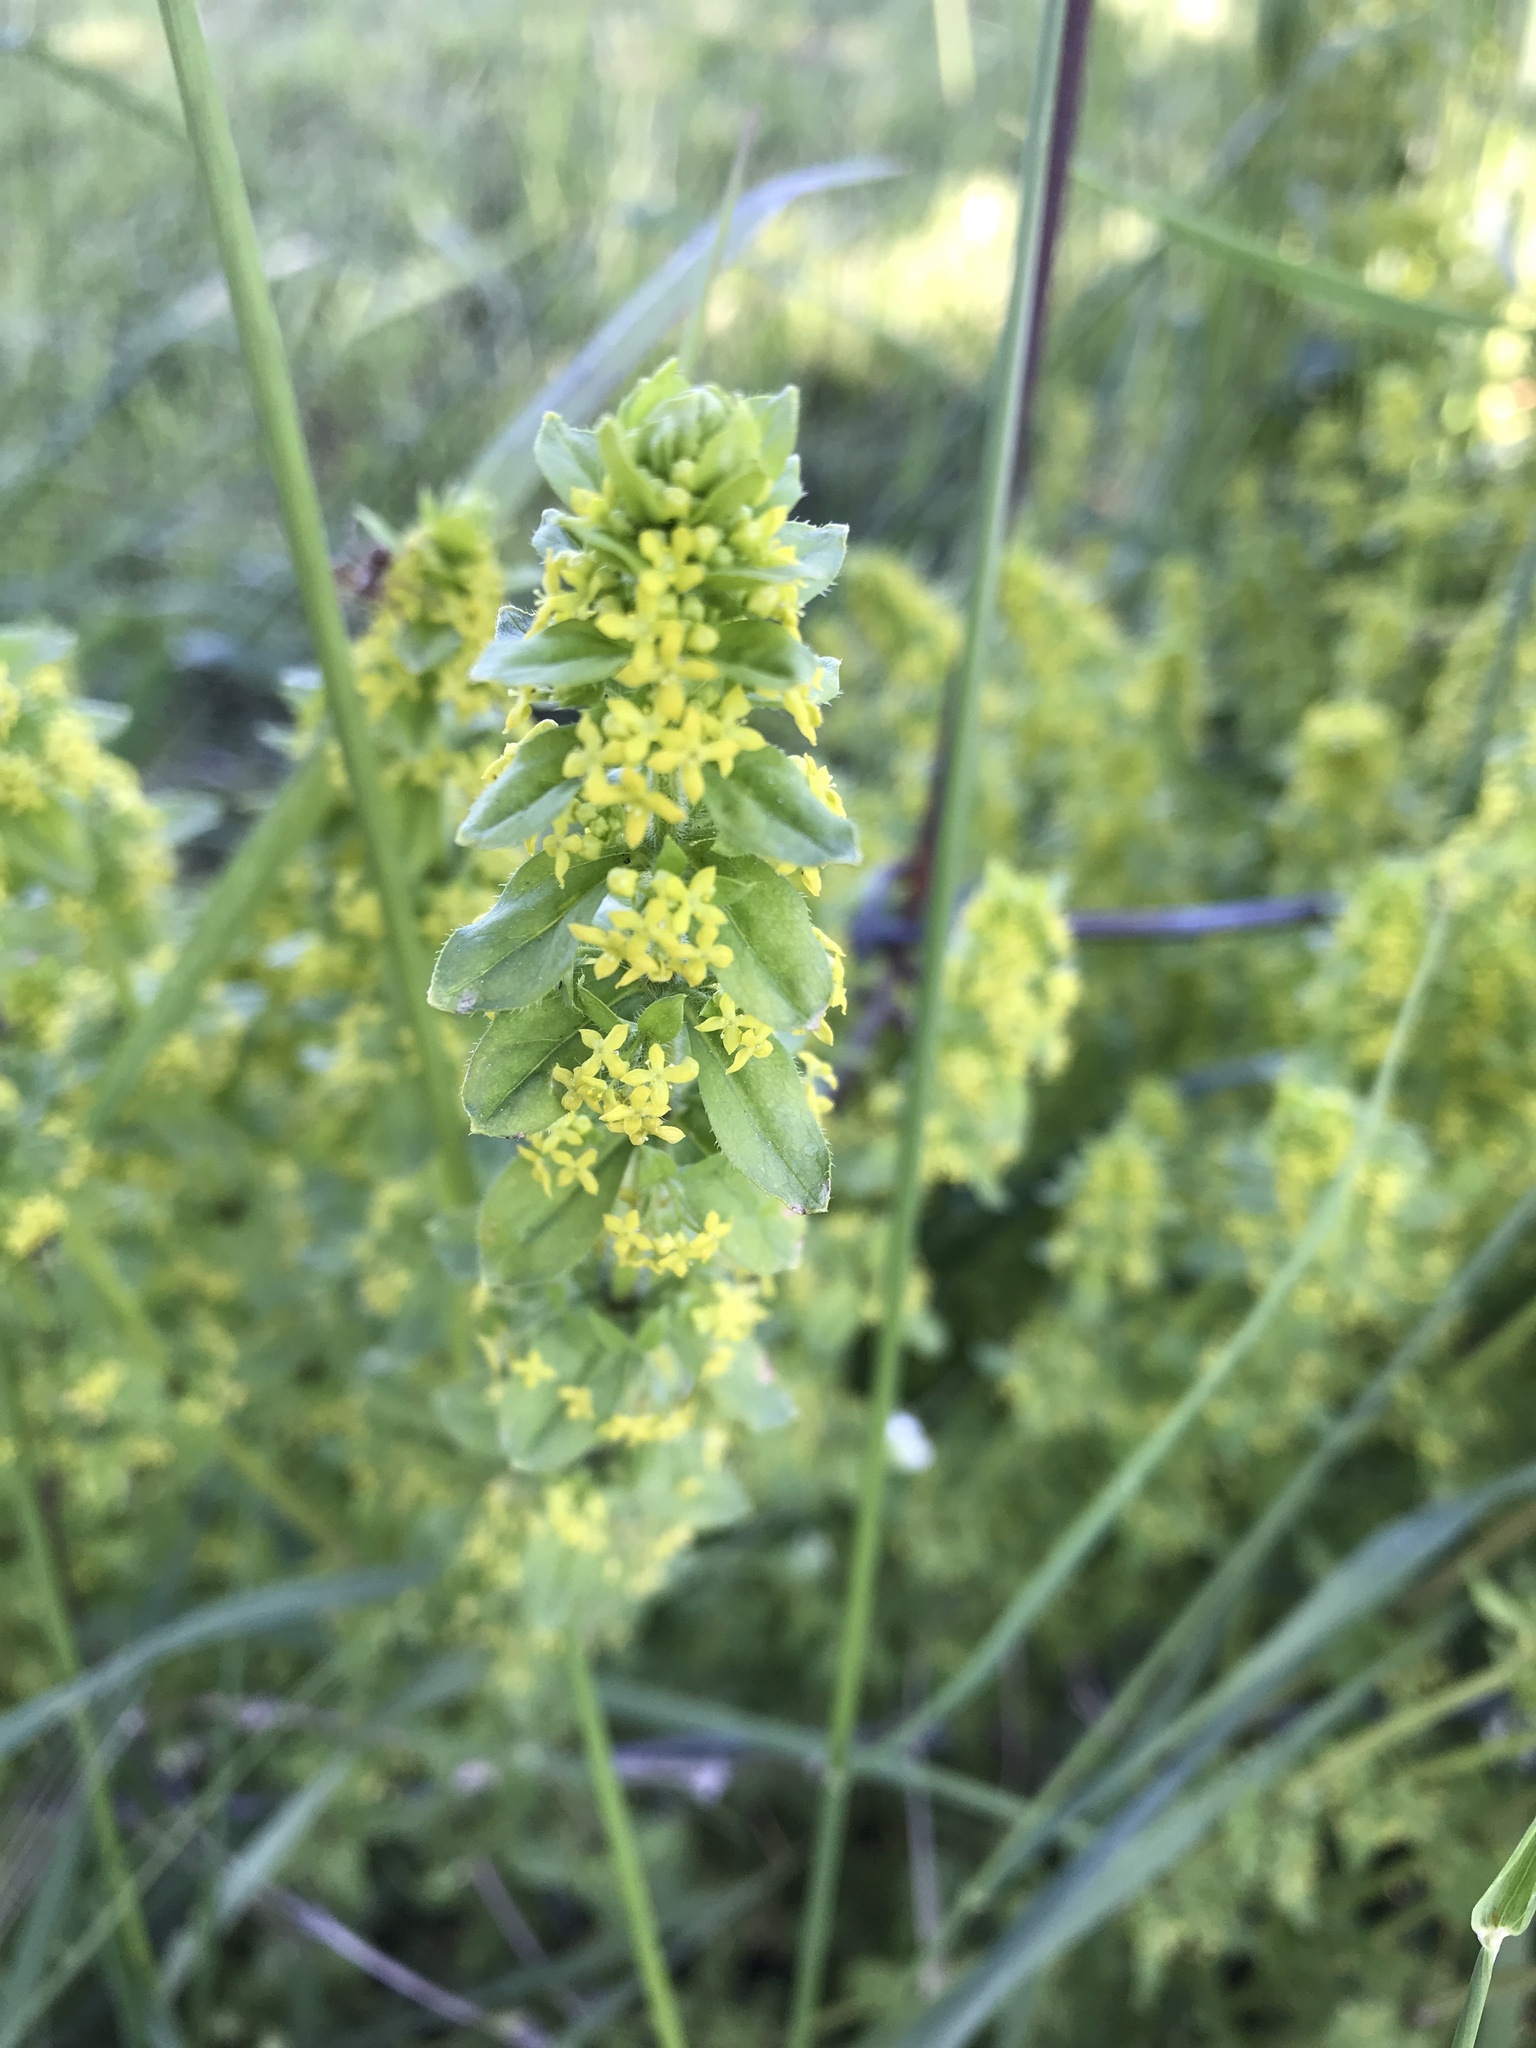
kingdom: Plantae
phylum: Tracheophyta
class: Magnoliopsida
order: Gentianales
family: Rubiaceae
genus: Cruciata
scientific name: Cruciata laevipes
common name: Crosswort
